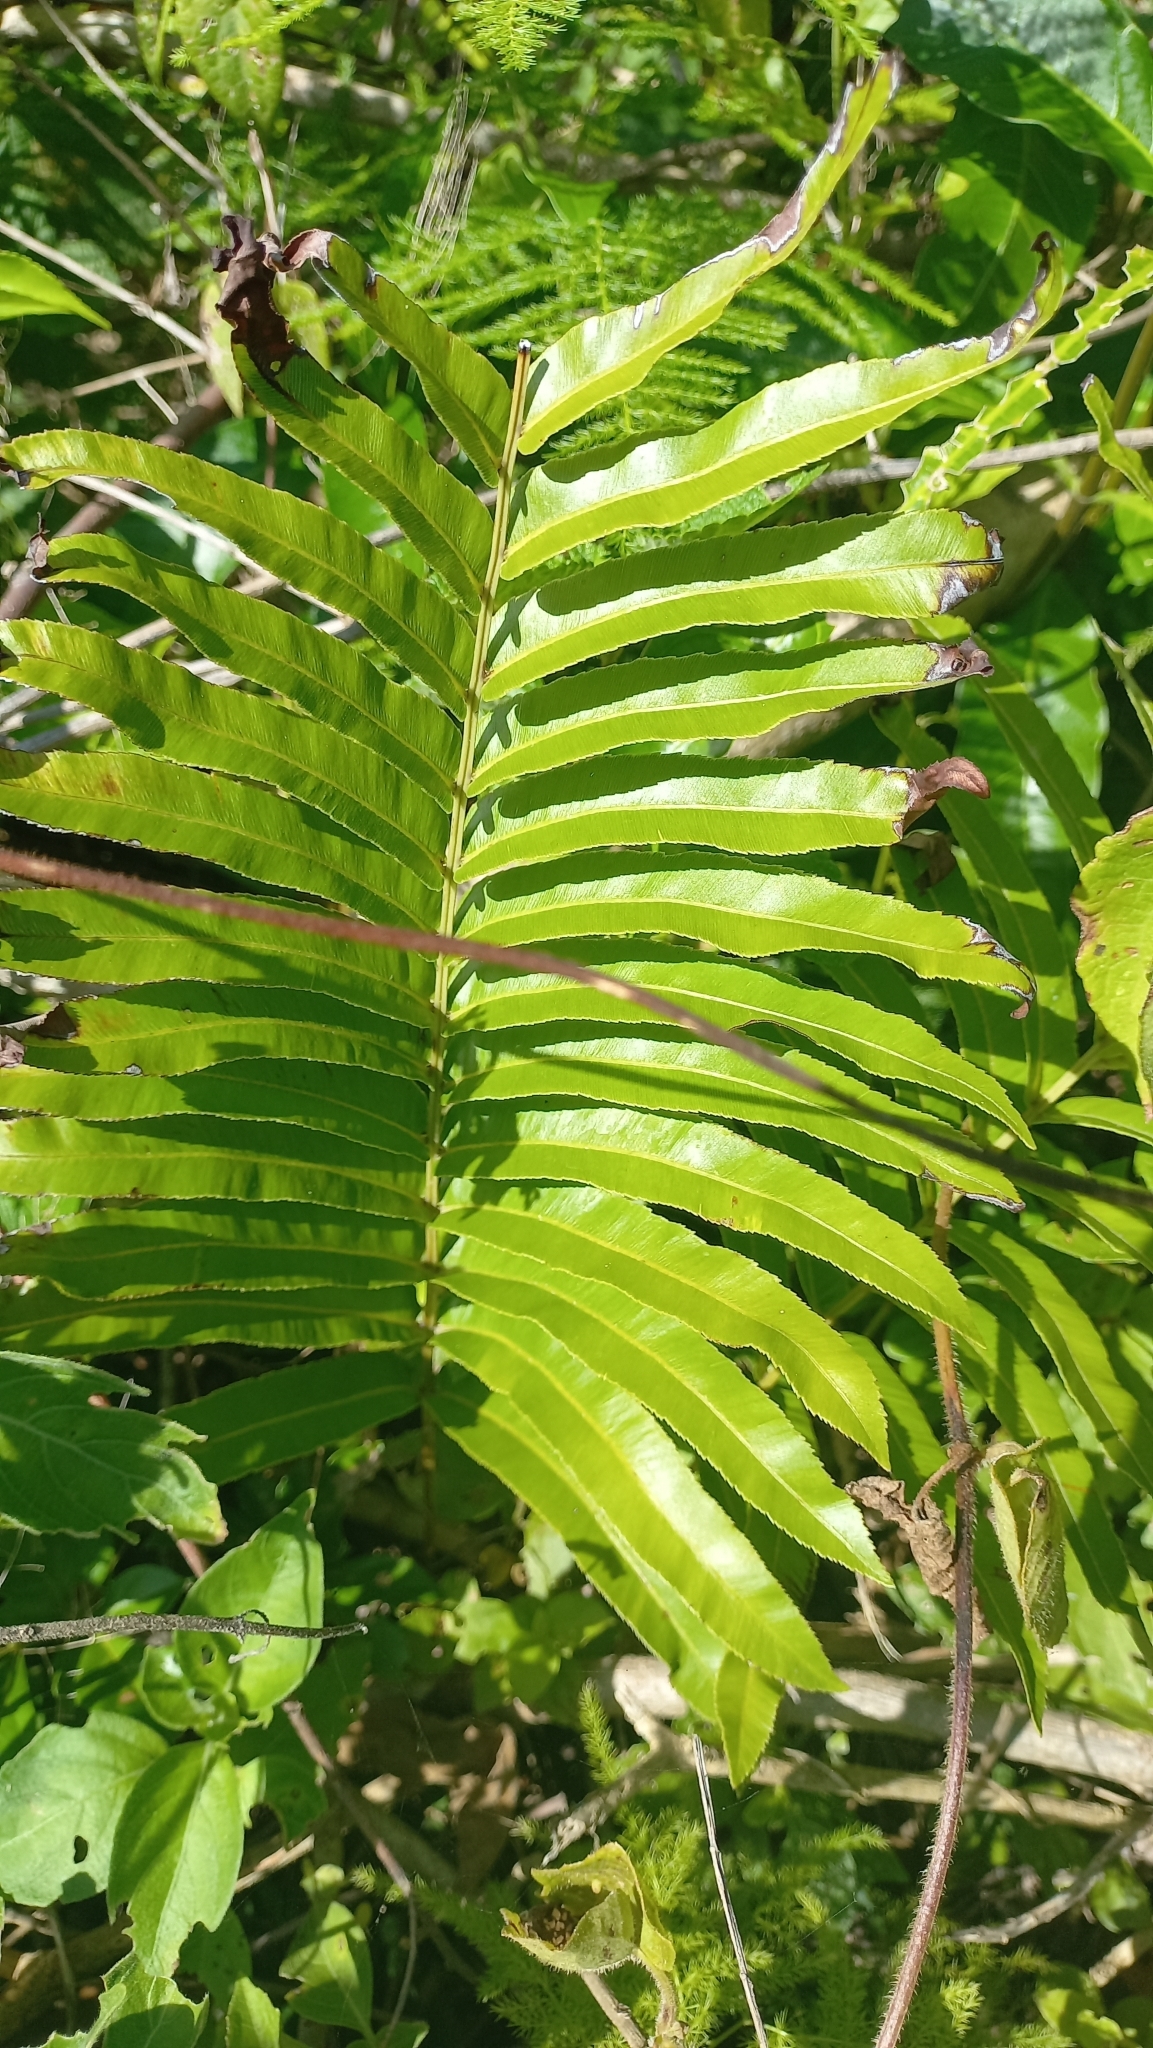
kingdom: Plantae
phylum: Tracheophyta
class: Polypodiopsida
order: Polypodiales
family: Blechnaceae
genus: Telmatoblechnum
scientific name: Telmatoblechnum serrulatum
